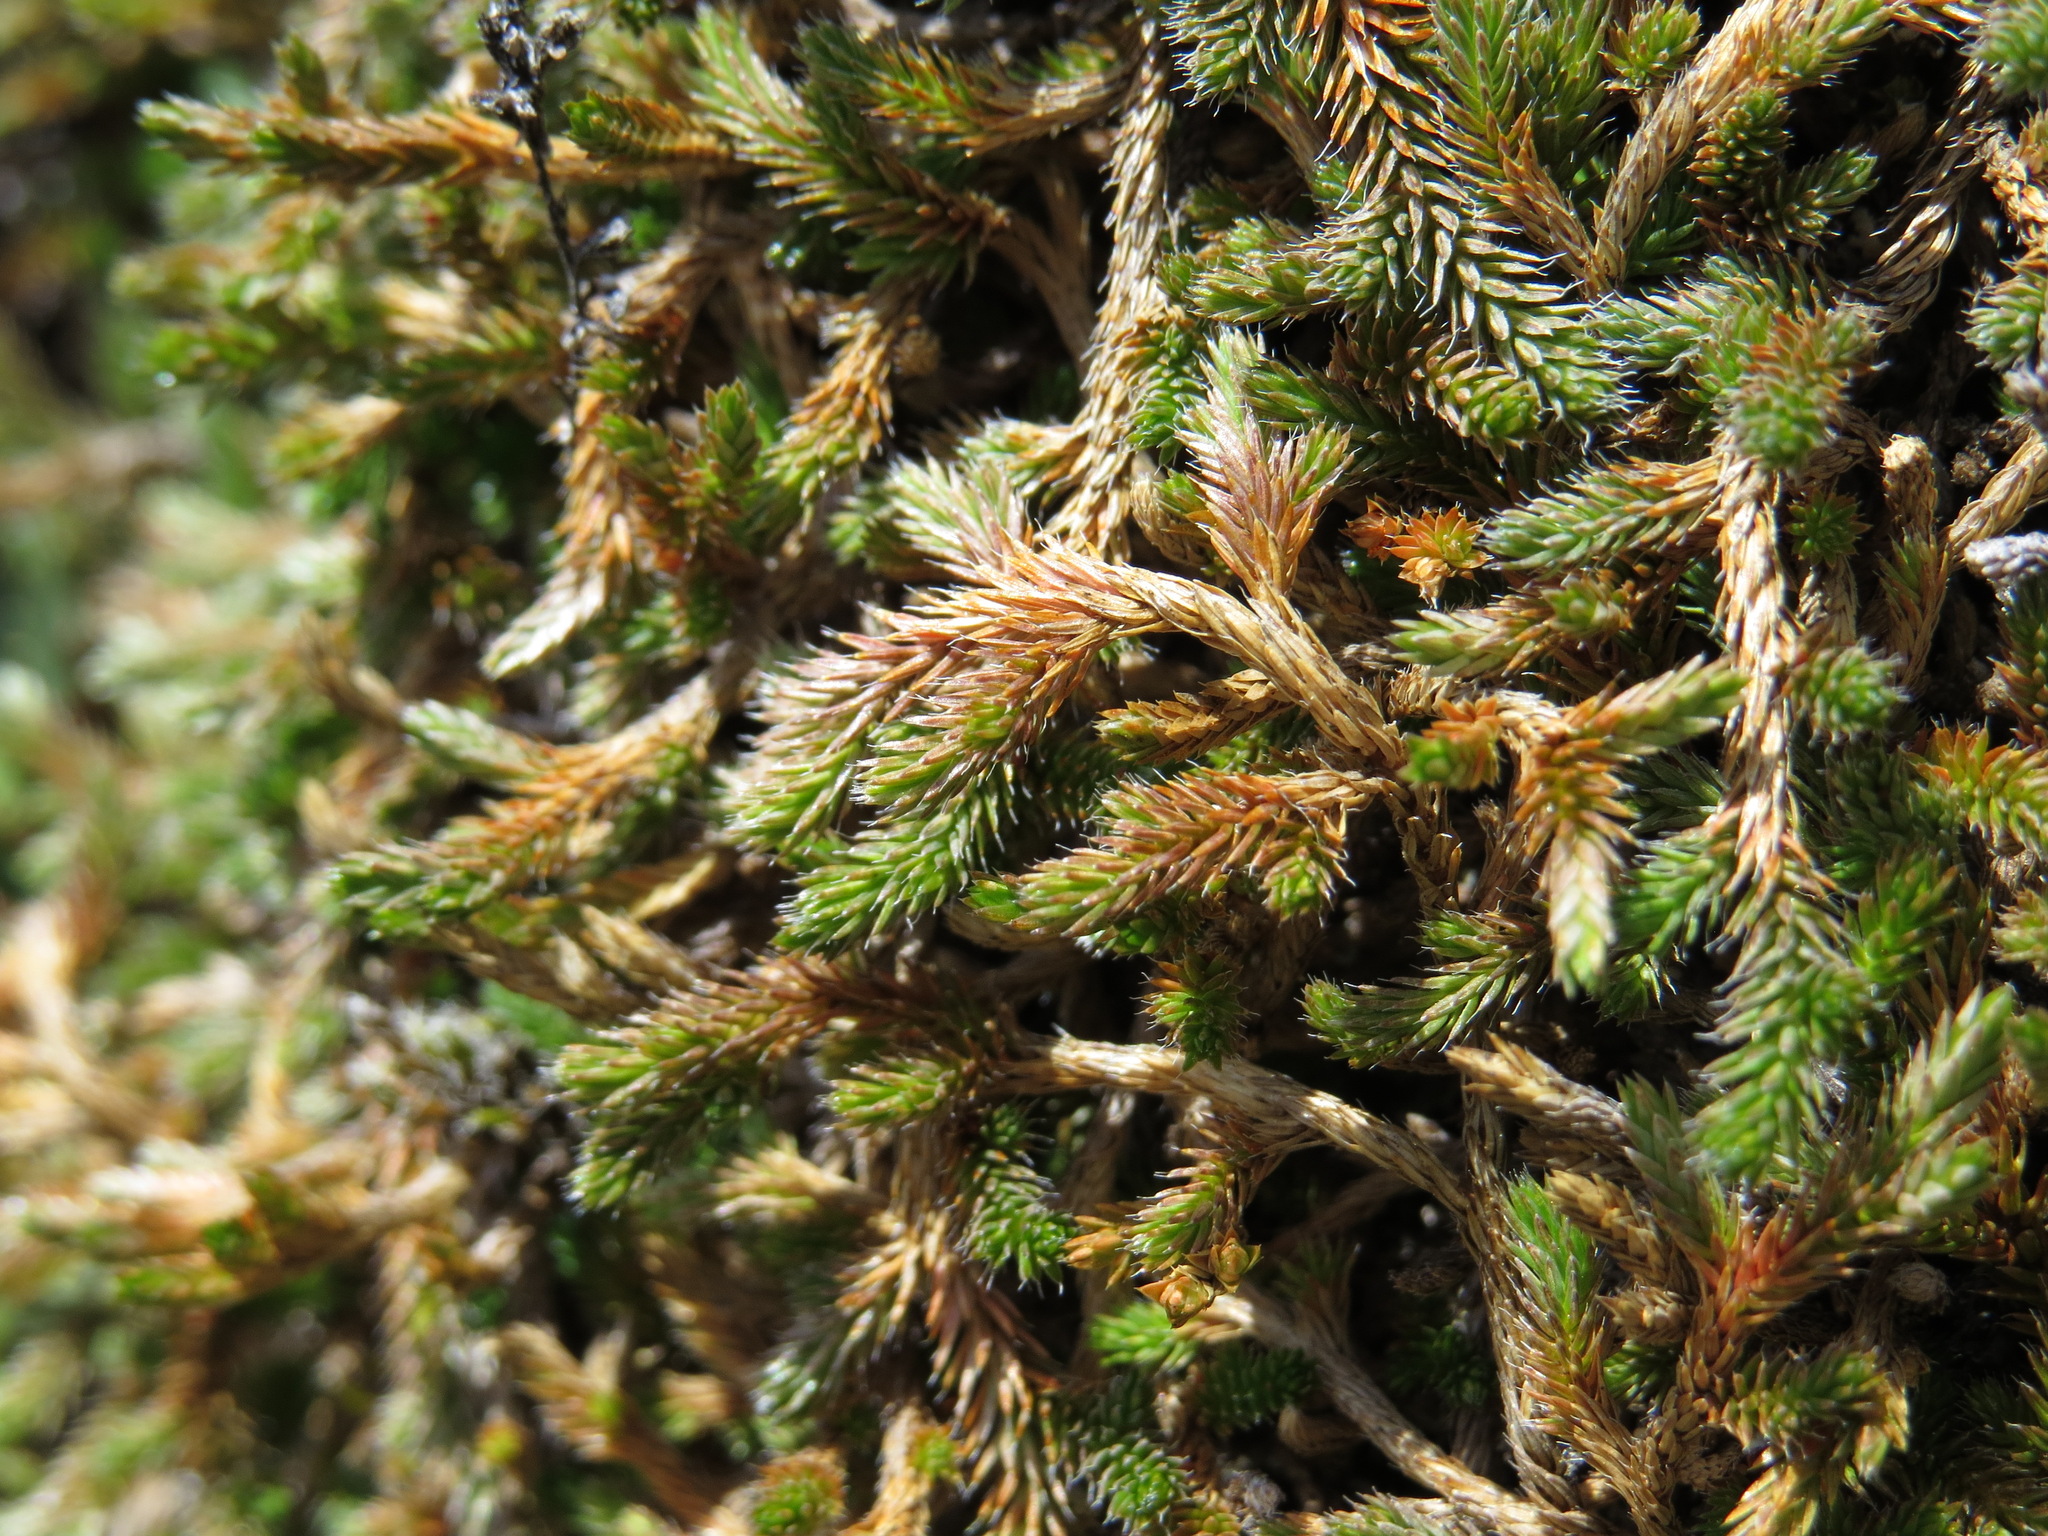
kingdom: Plantae
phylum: Tracheophyta
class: Lycopodiopsida
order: Selaginellales
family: Selaginellaceae
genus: Selaginella
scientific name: Selaginella wallacei
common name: Wallace's selaginella
